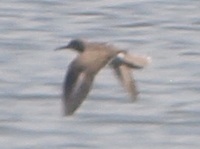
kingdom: Animalia
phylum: Chordata
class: Aves
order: Charadriiformes
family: Scolopacidae
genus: Actitis
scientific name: Actitis macularius
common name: Spotted sandpiper
